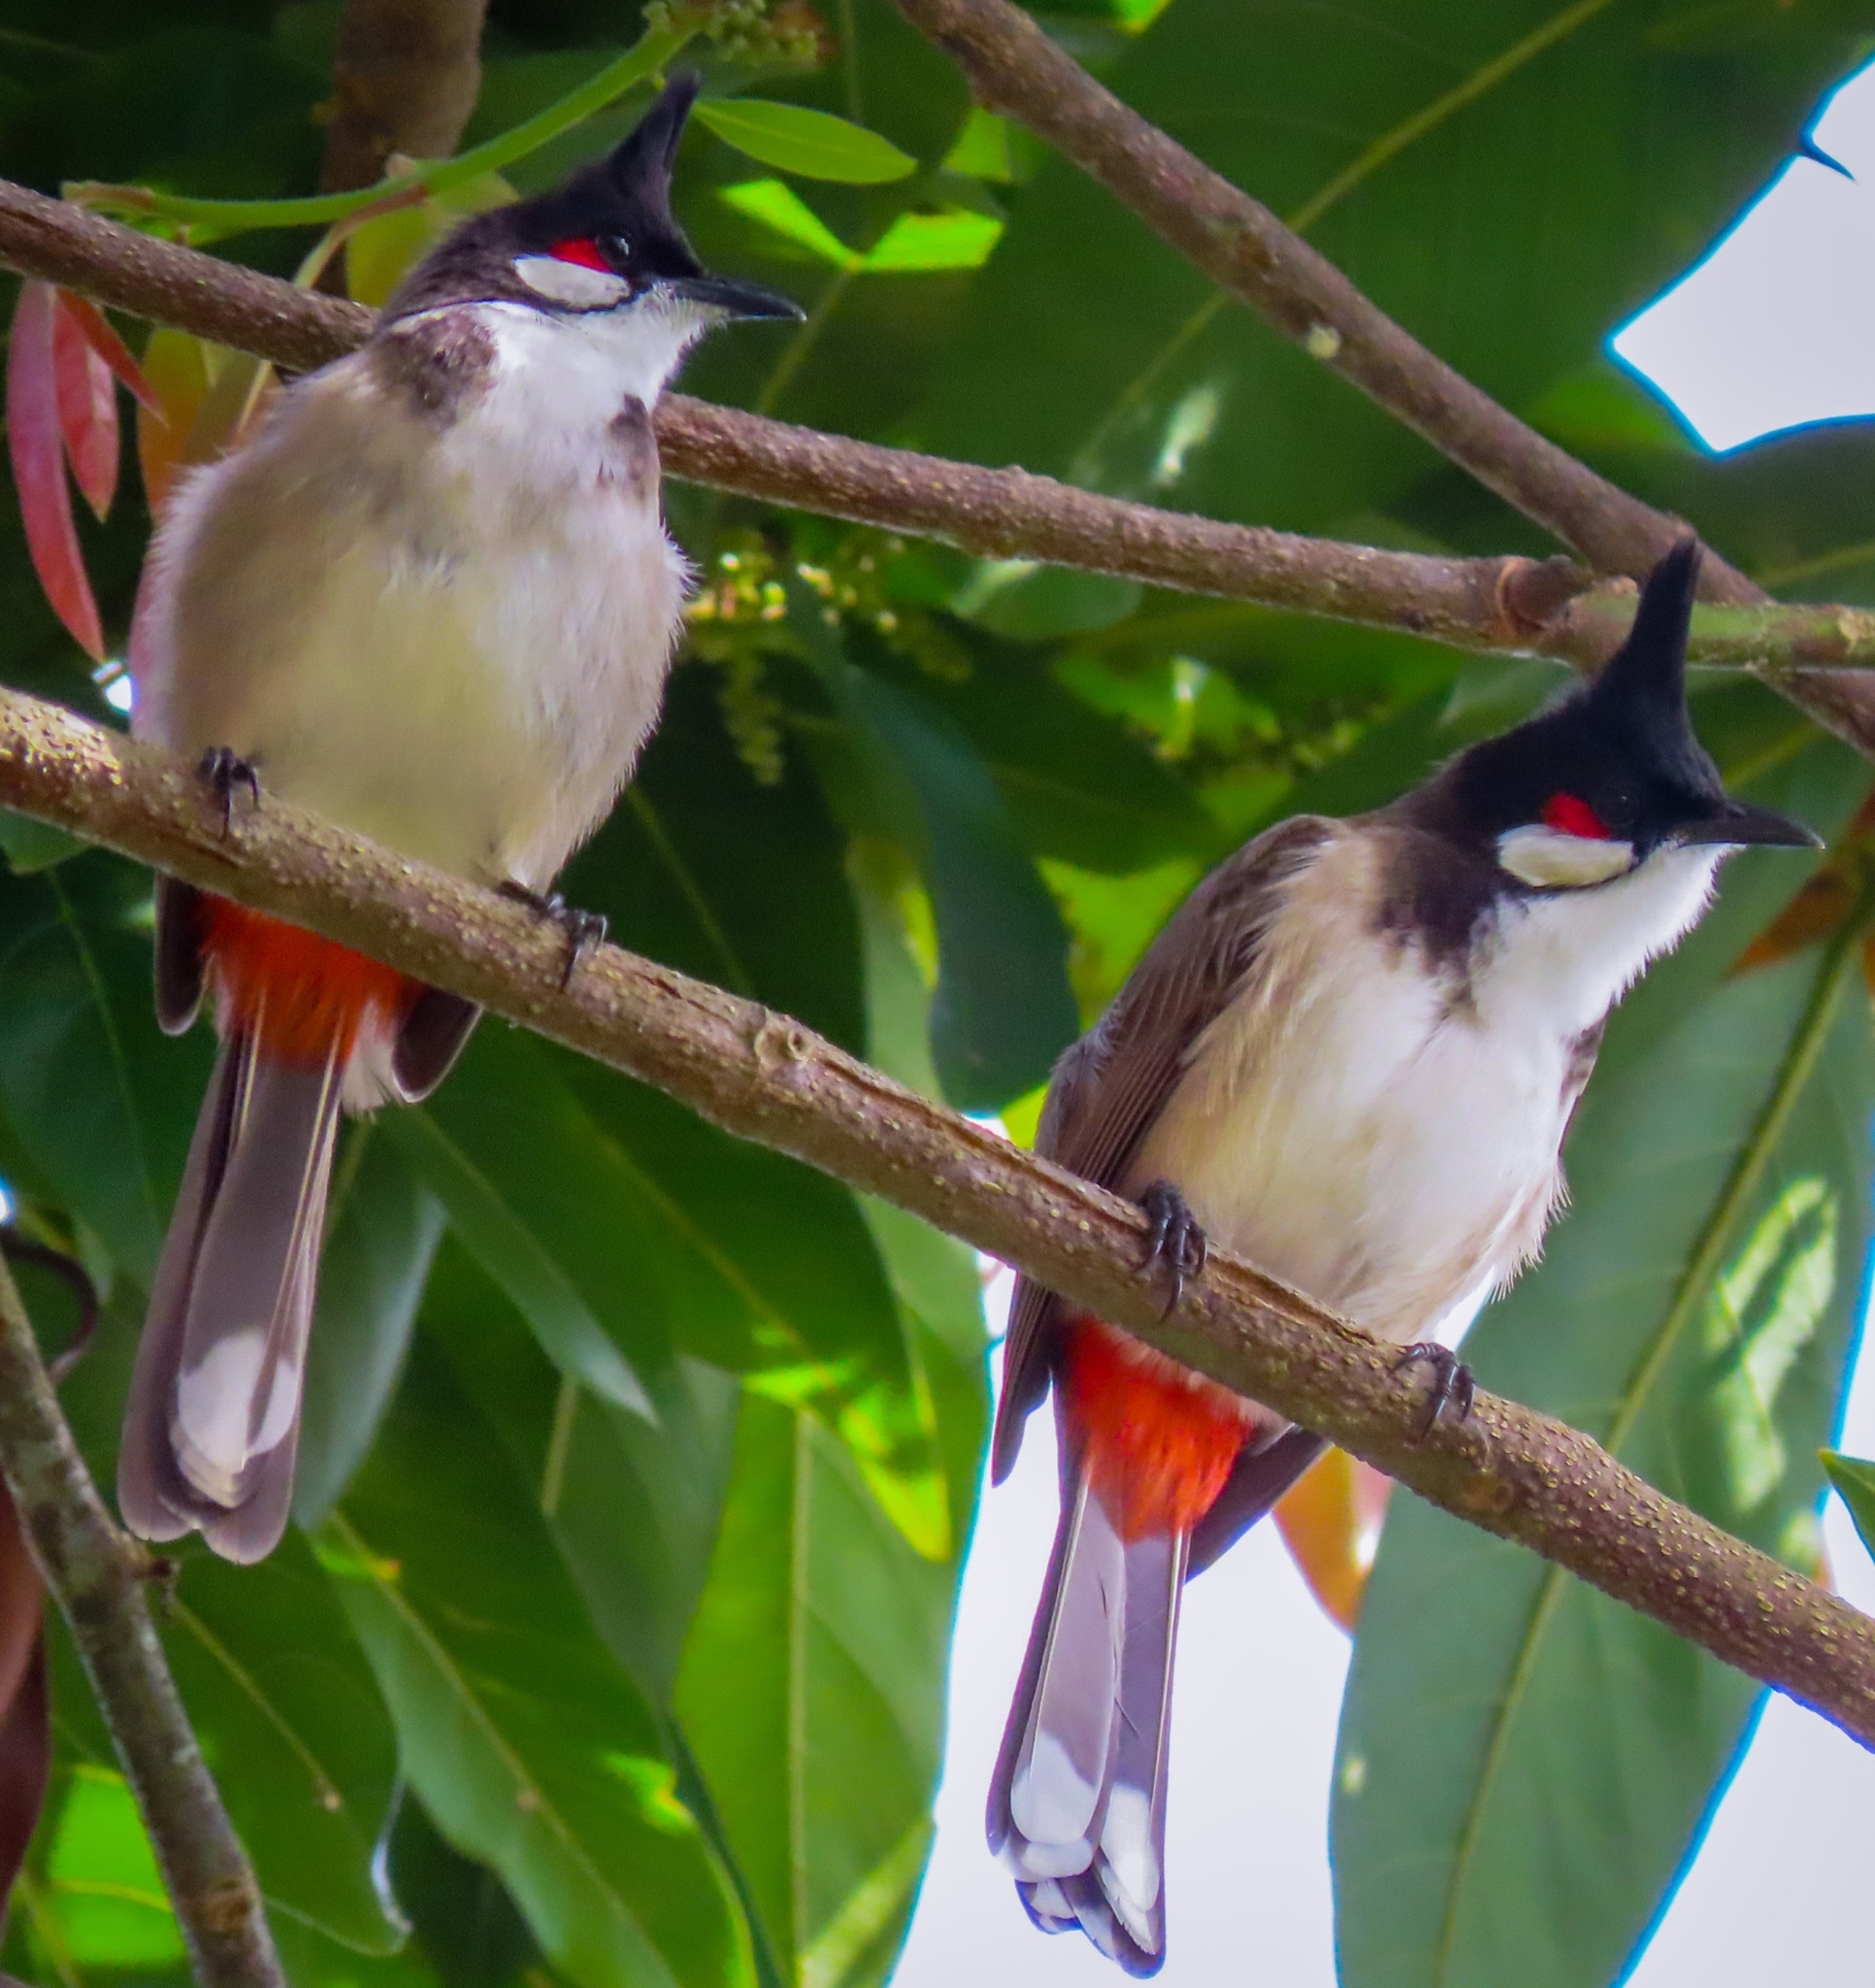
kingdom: Animalia
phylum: Chordata
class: Aves
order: Passeriformes
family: Pycnonotidae
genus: Pycnonotus
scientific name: Pycnonotus jocosus
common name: Red-whiskered bulbul
